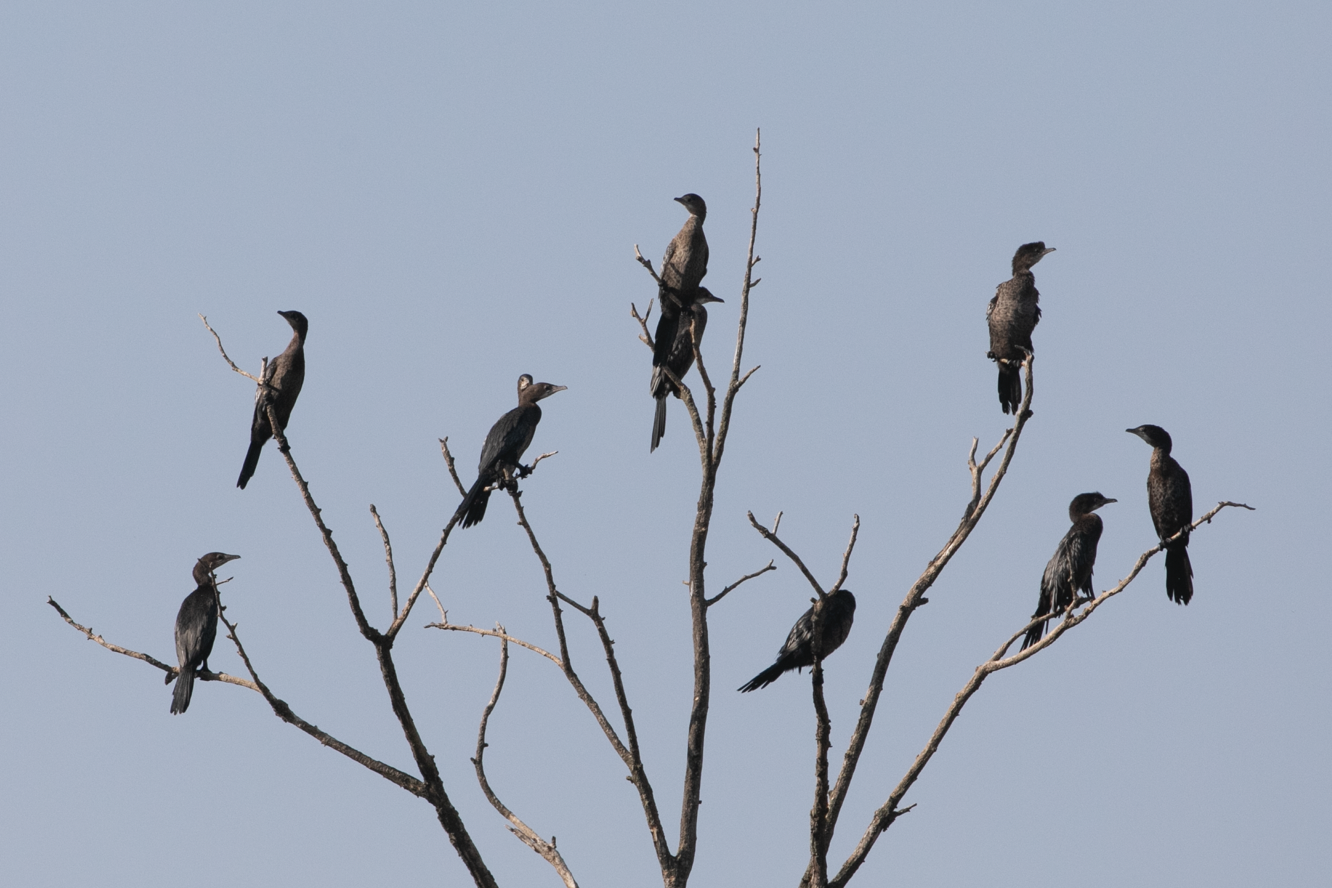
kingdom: Animalia
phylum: Chordata
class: Aves
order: Suliformes
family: Phalacrocoracidae
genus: Microcarbo
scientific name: Microcarbo pygmaeus
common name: Pygmy cormorant
